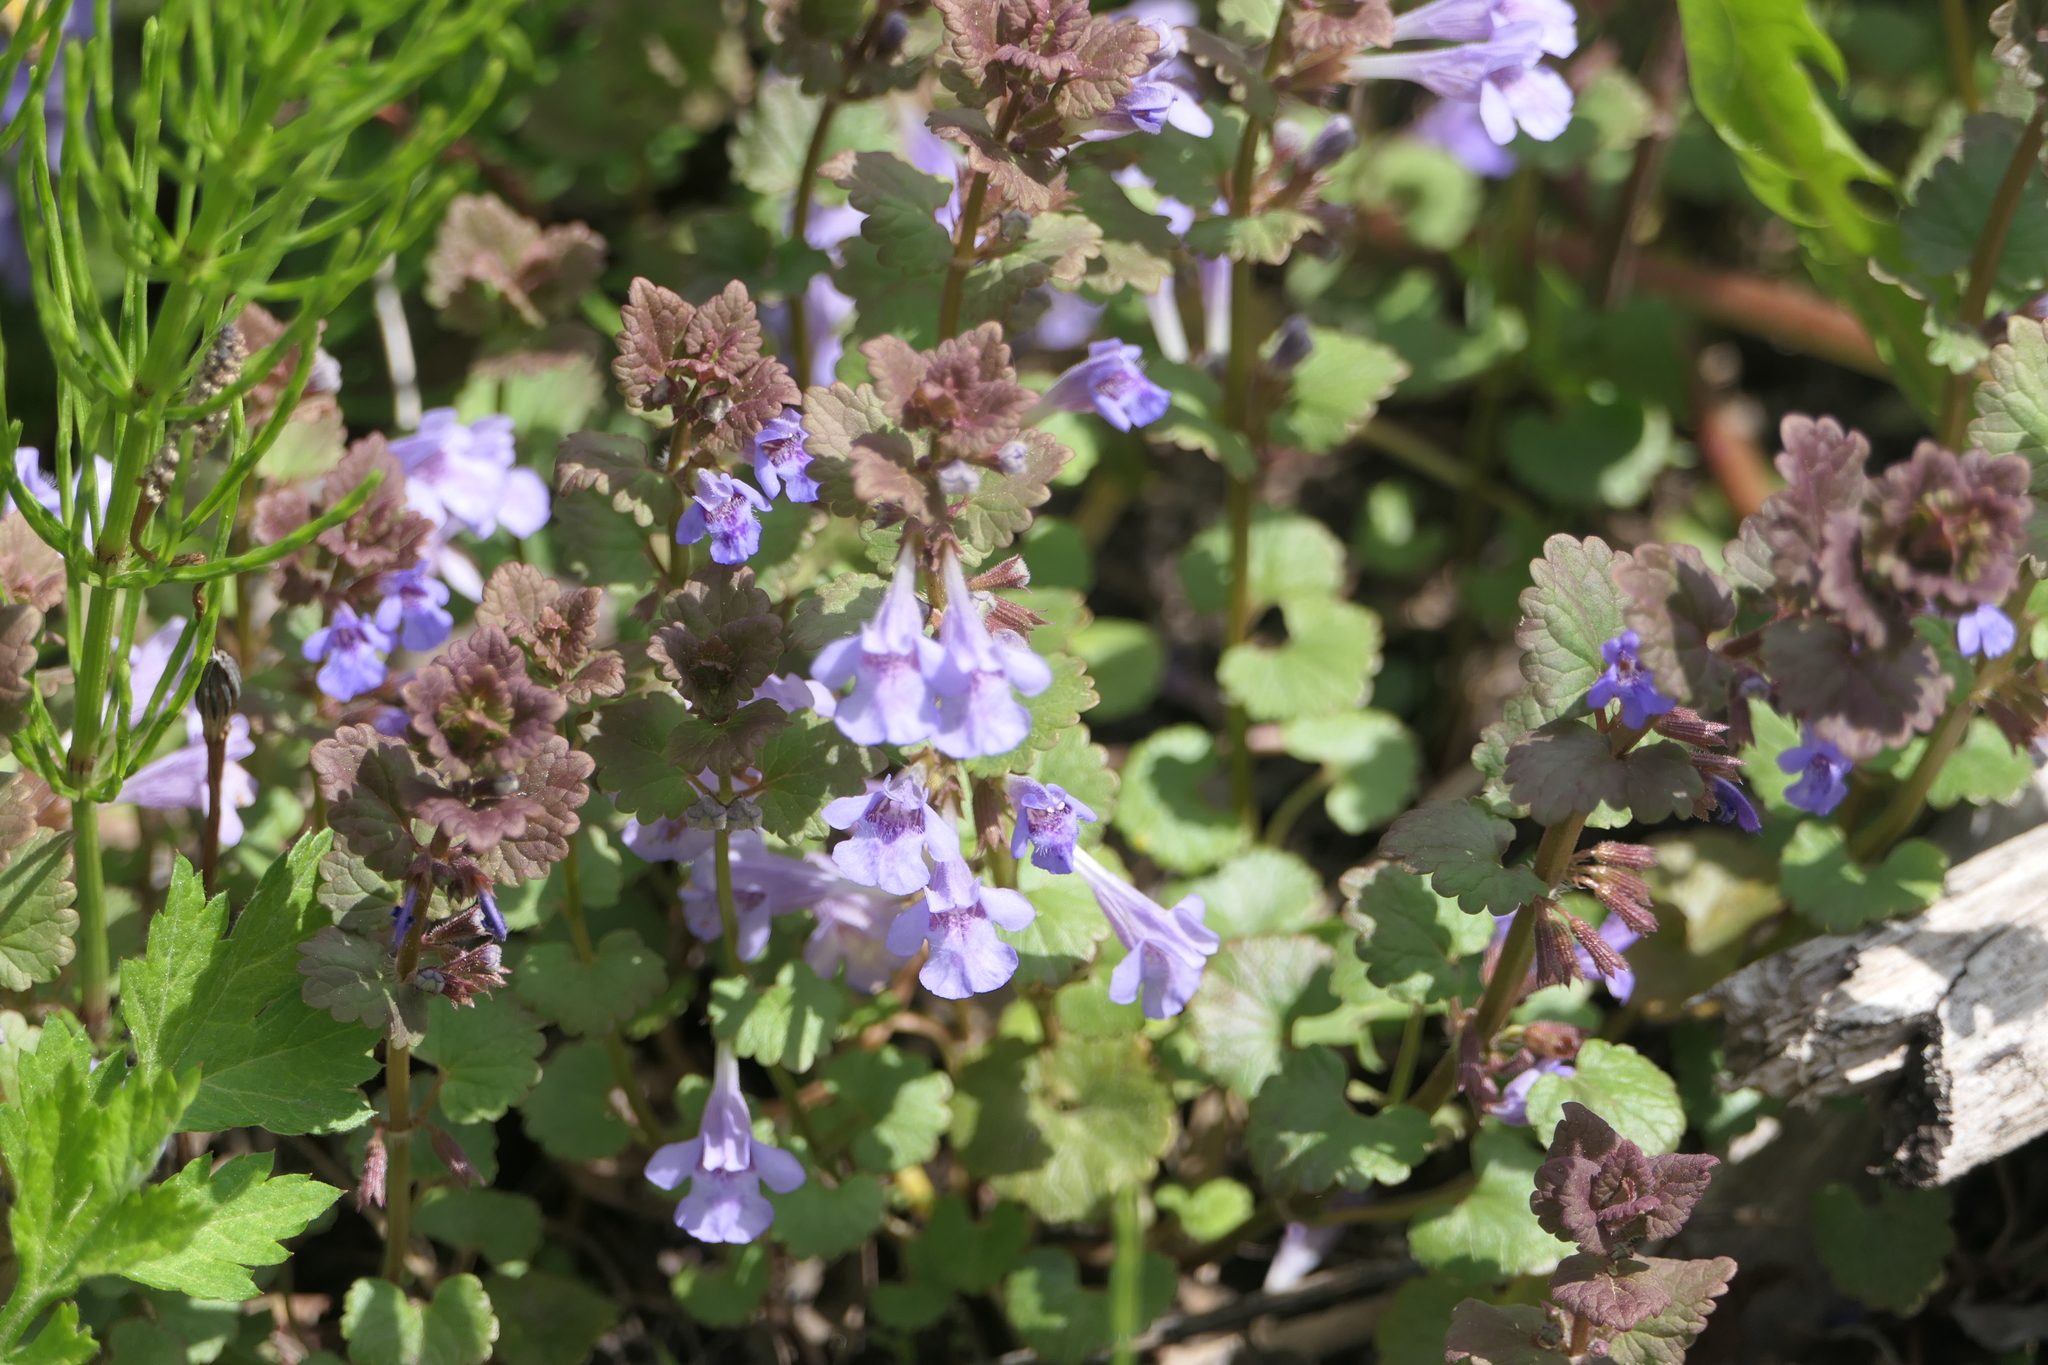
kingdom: Plantae
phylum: Tracheophyta
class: Magnoliopsida
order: Lamiales
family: Lamiaceae
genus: Glechoma
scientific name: Glechoma hederacea
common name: Ground ivy
